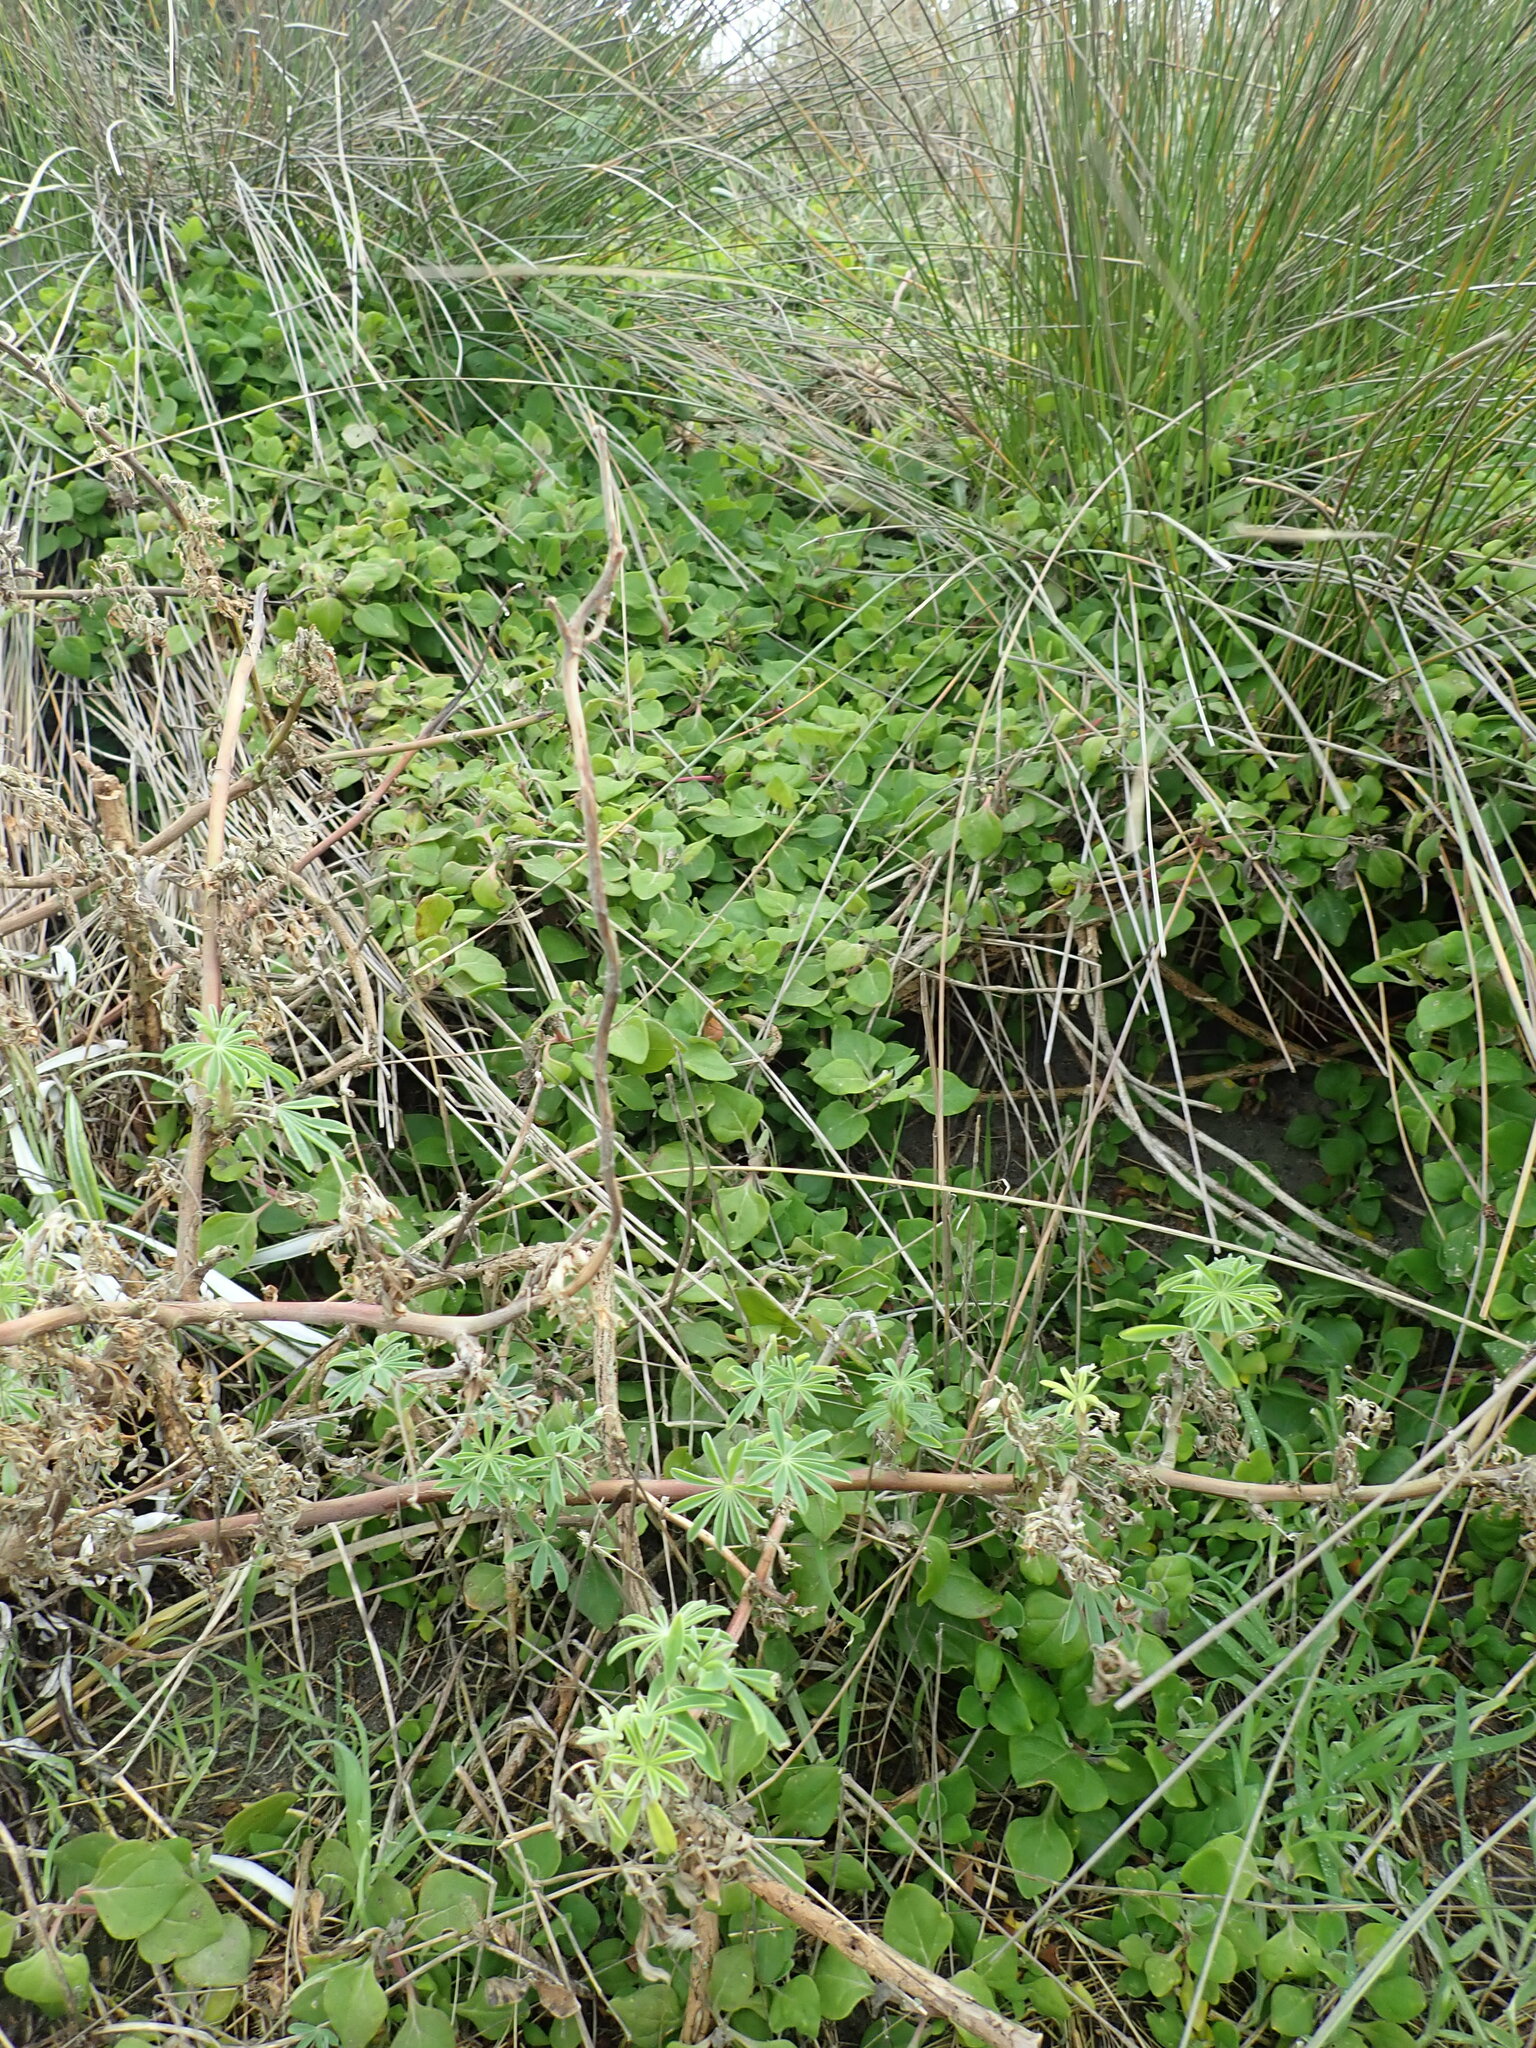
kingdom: Plantae
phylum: Tracheophyta
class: Magnoliopsida
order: Caryophyllales
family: Aizoaceae
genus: Tetragonia
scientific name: Tetragonia implexicoma
